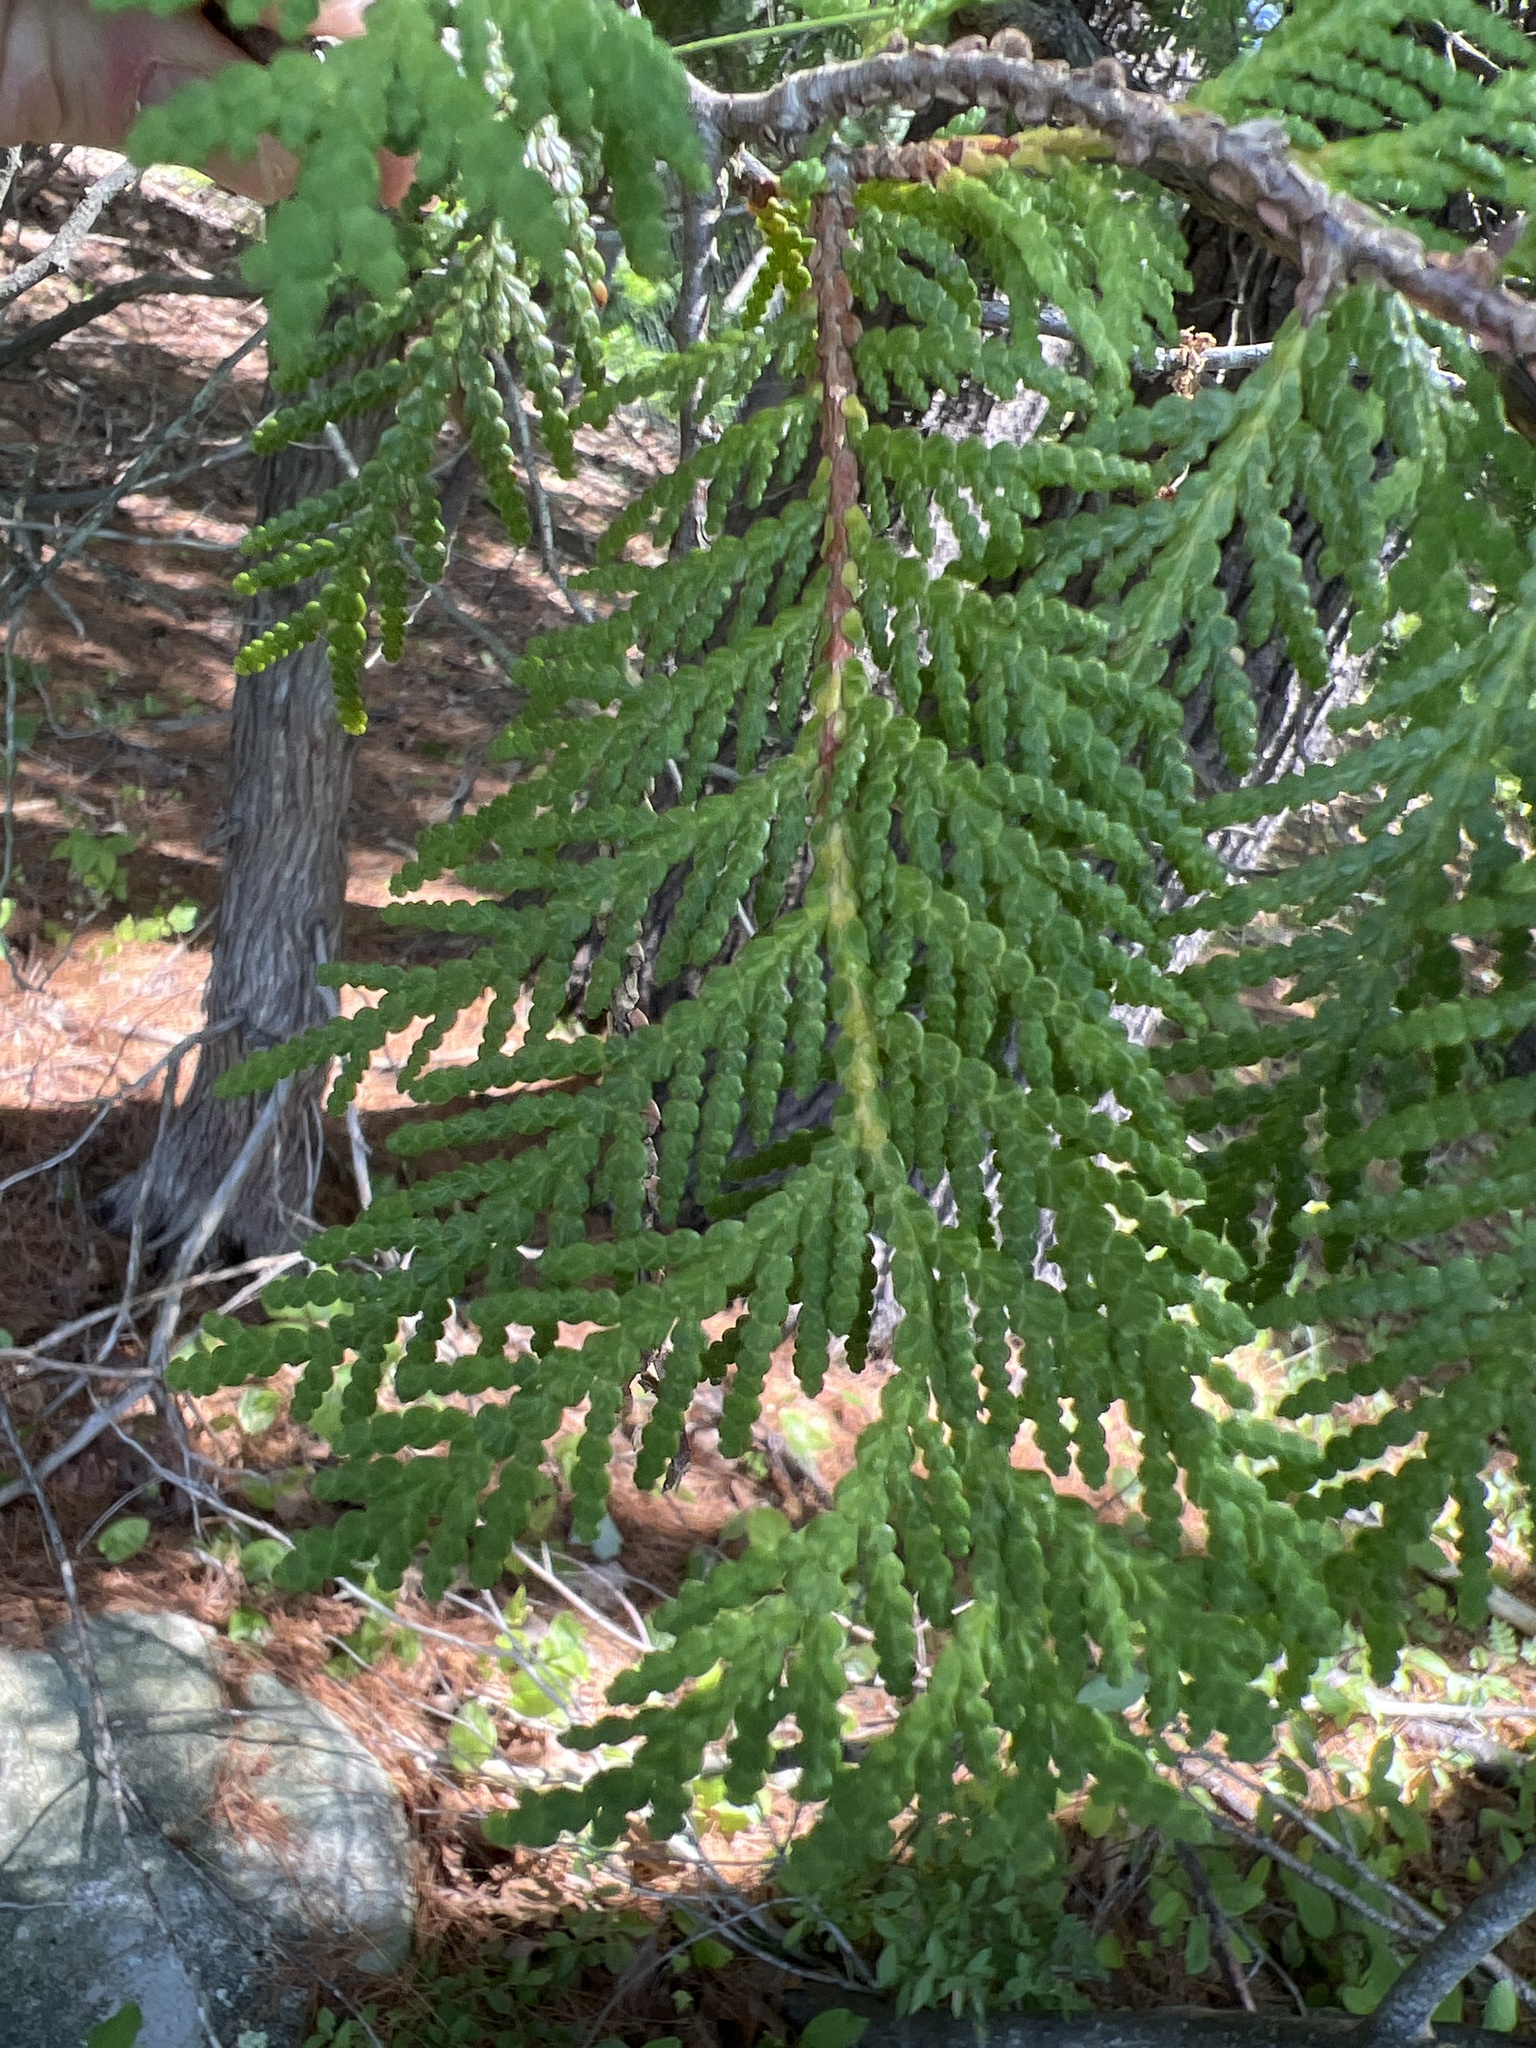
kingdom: Plantae
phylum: Tracheophyta
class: Pinopsida
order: Pinales
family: Cupressaceae
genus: Thuja
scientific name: Thuja occidentalis
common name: Northern white-cedar
